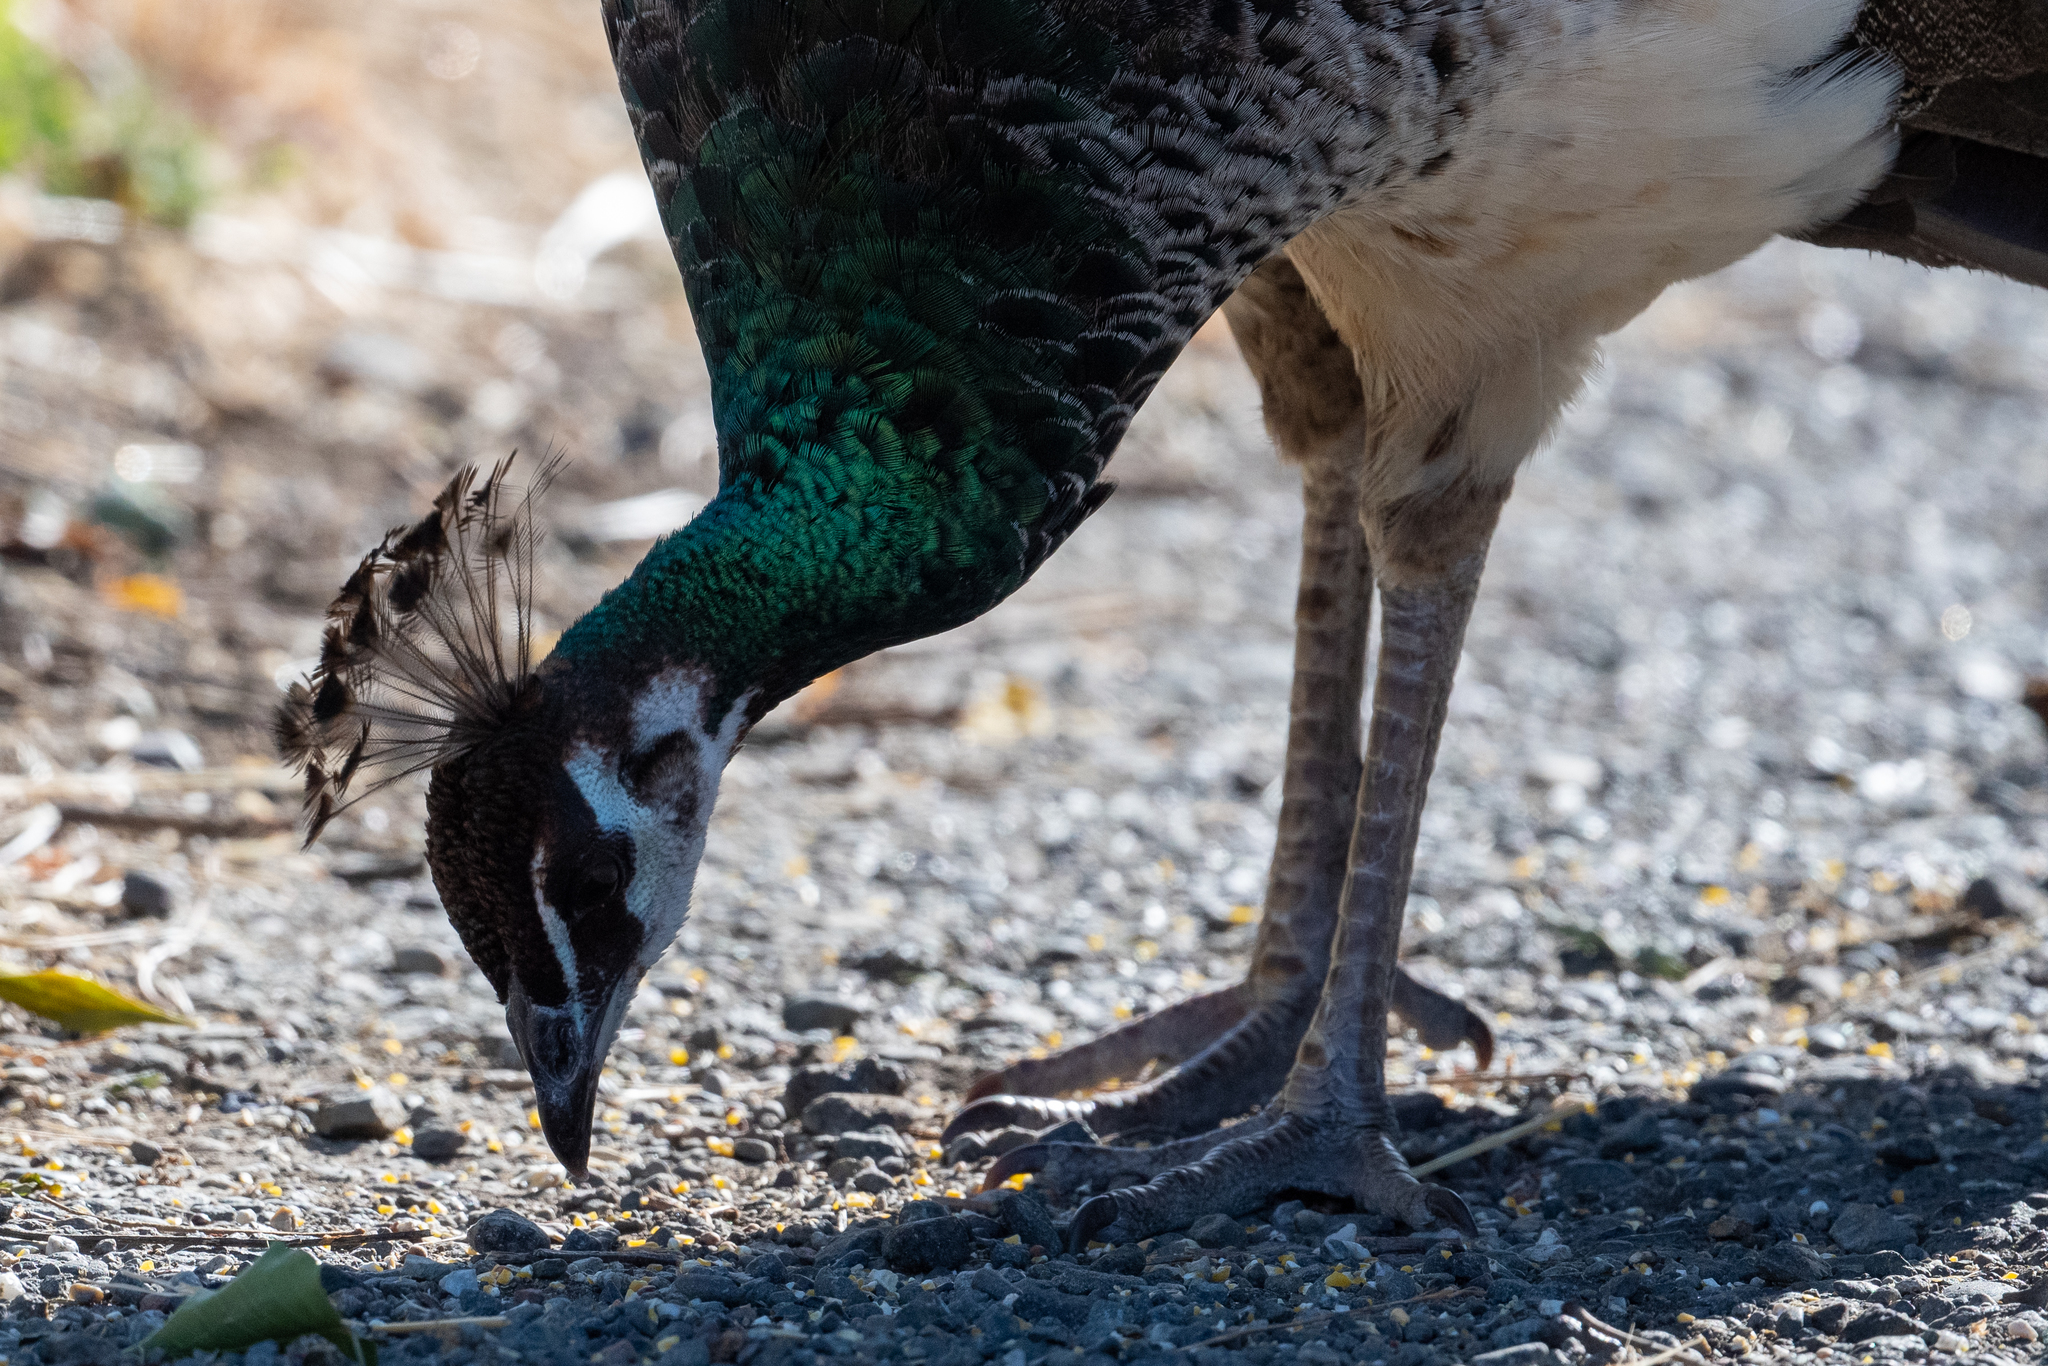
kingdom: Animalia
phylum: Chordata
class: Aves
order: Galliformes
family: Phasianidae
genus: Pavo
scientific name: Pavo cristatus
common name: Indian peafowl
